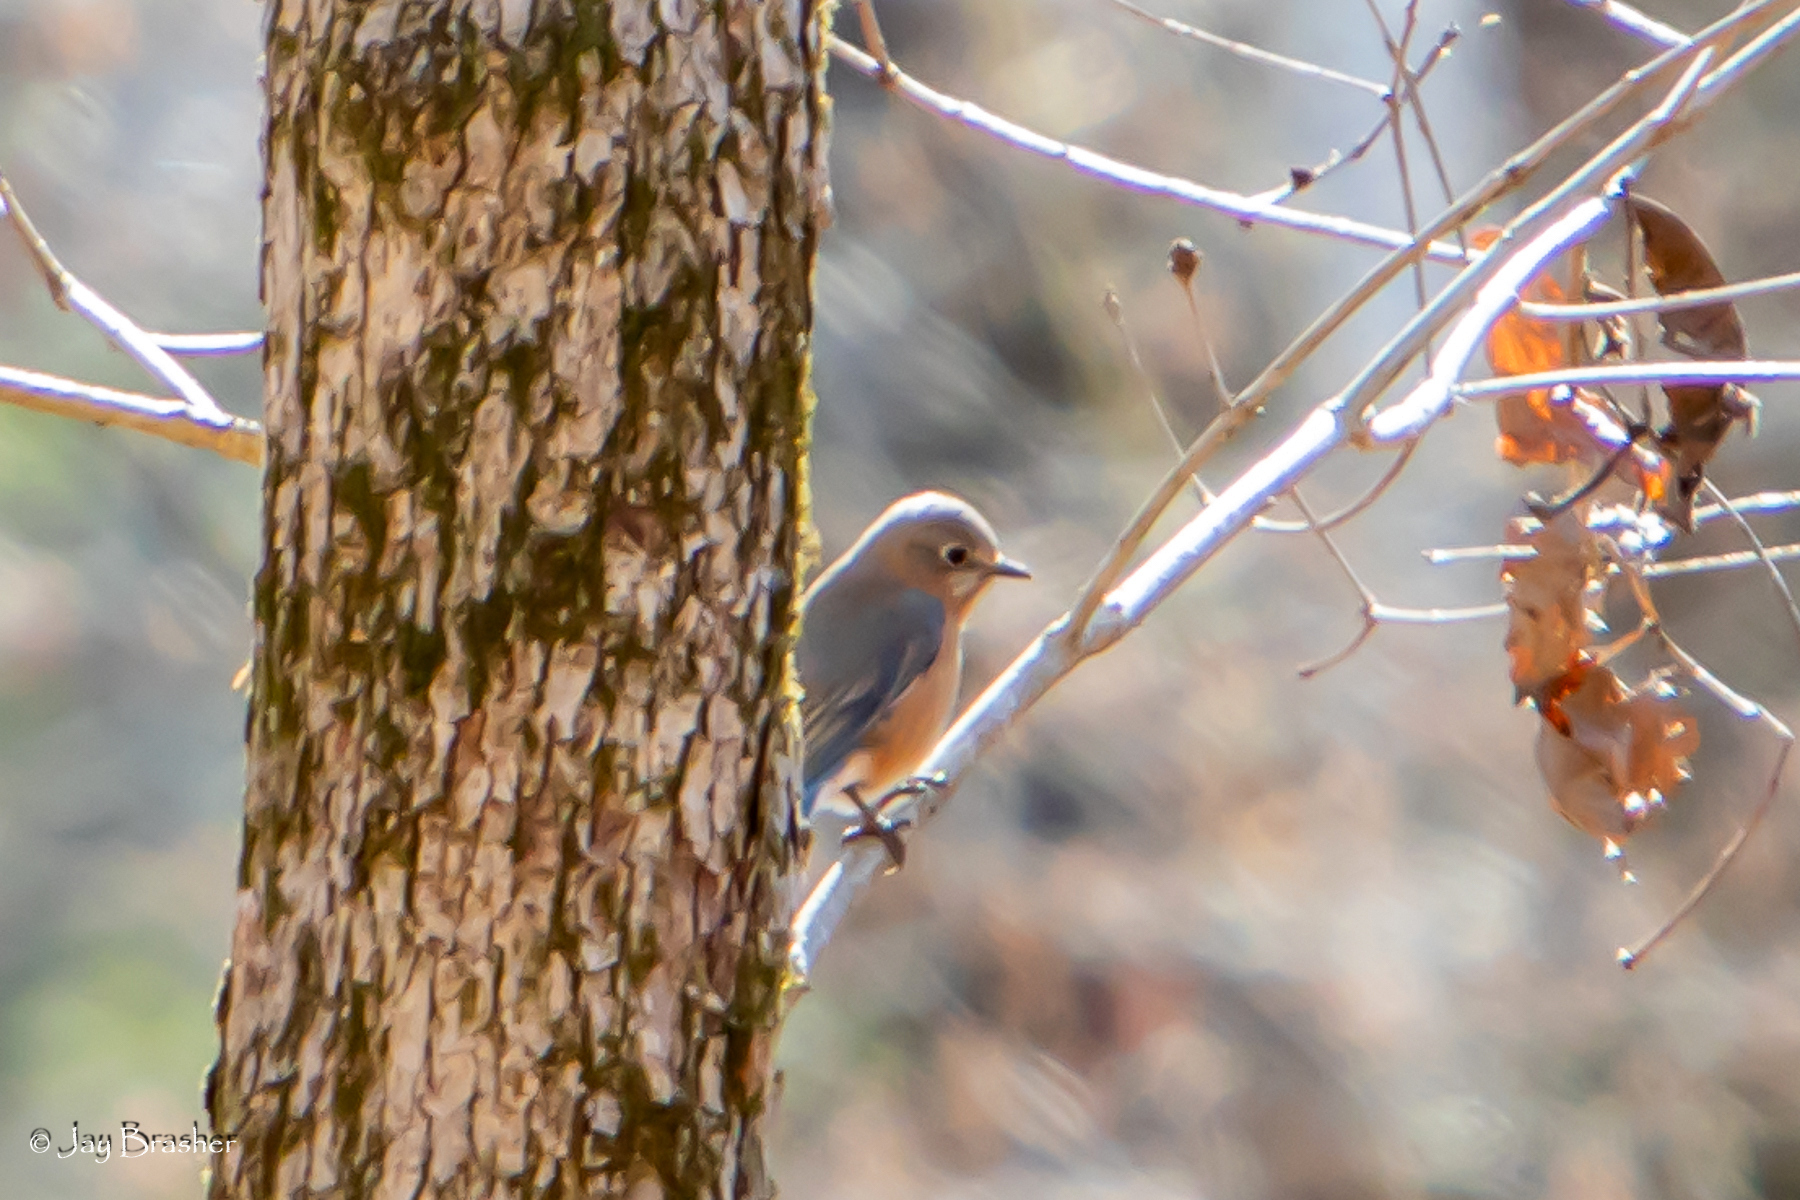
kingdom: Animalia
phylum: Chordata
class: Aves
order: Passeriformes
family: Turdidae
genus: Sialia
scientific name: Sialia sialis
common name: Eastern bluebird
